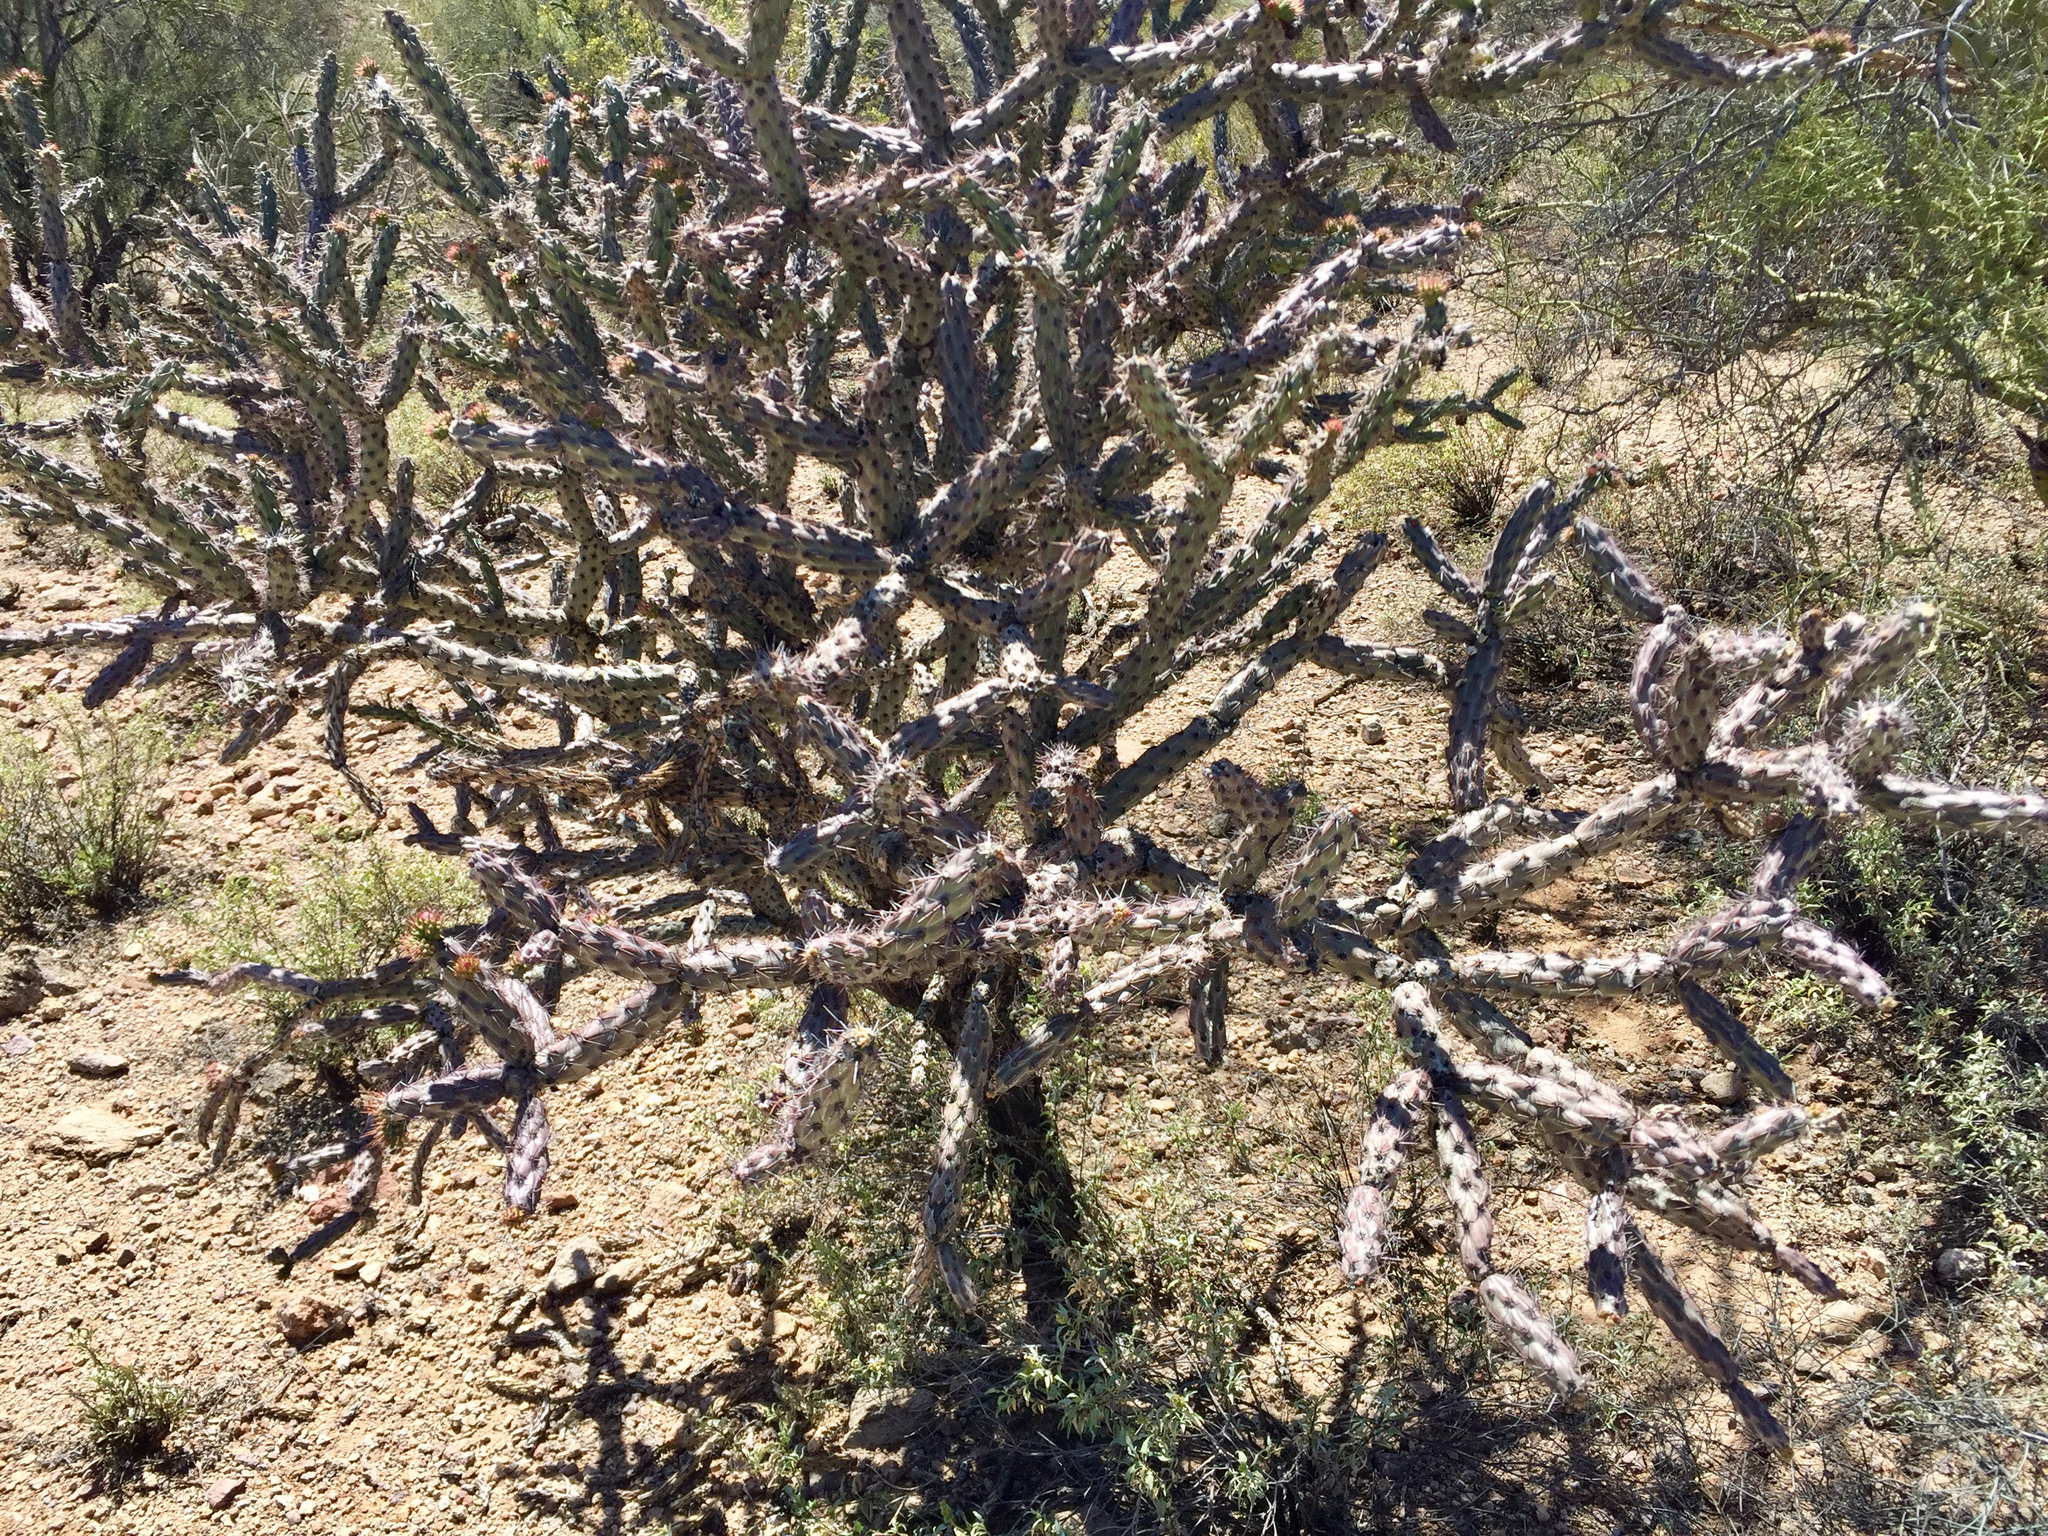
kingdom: Plantae
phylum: Tracheophyta
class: Magnoliopsida
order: Caryophyllales
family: Cactaceae
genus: Cylindropuntia
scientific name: Cylindropuntia acanthocarpa
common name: Buckhorn cholla
